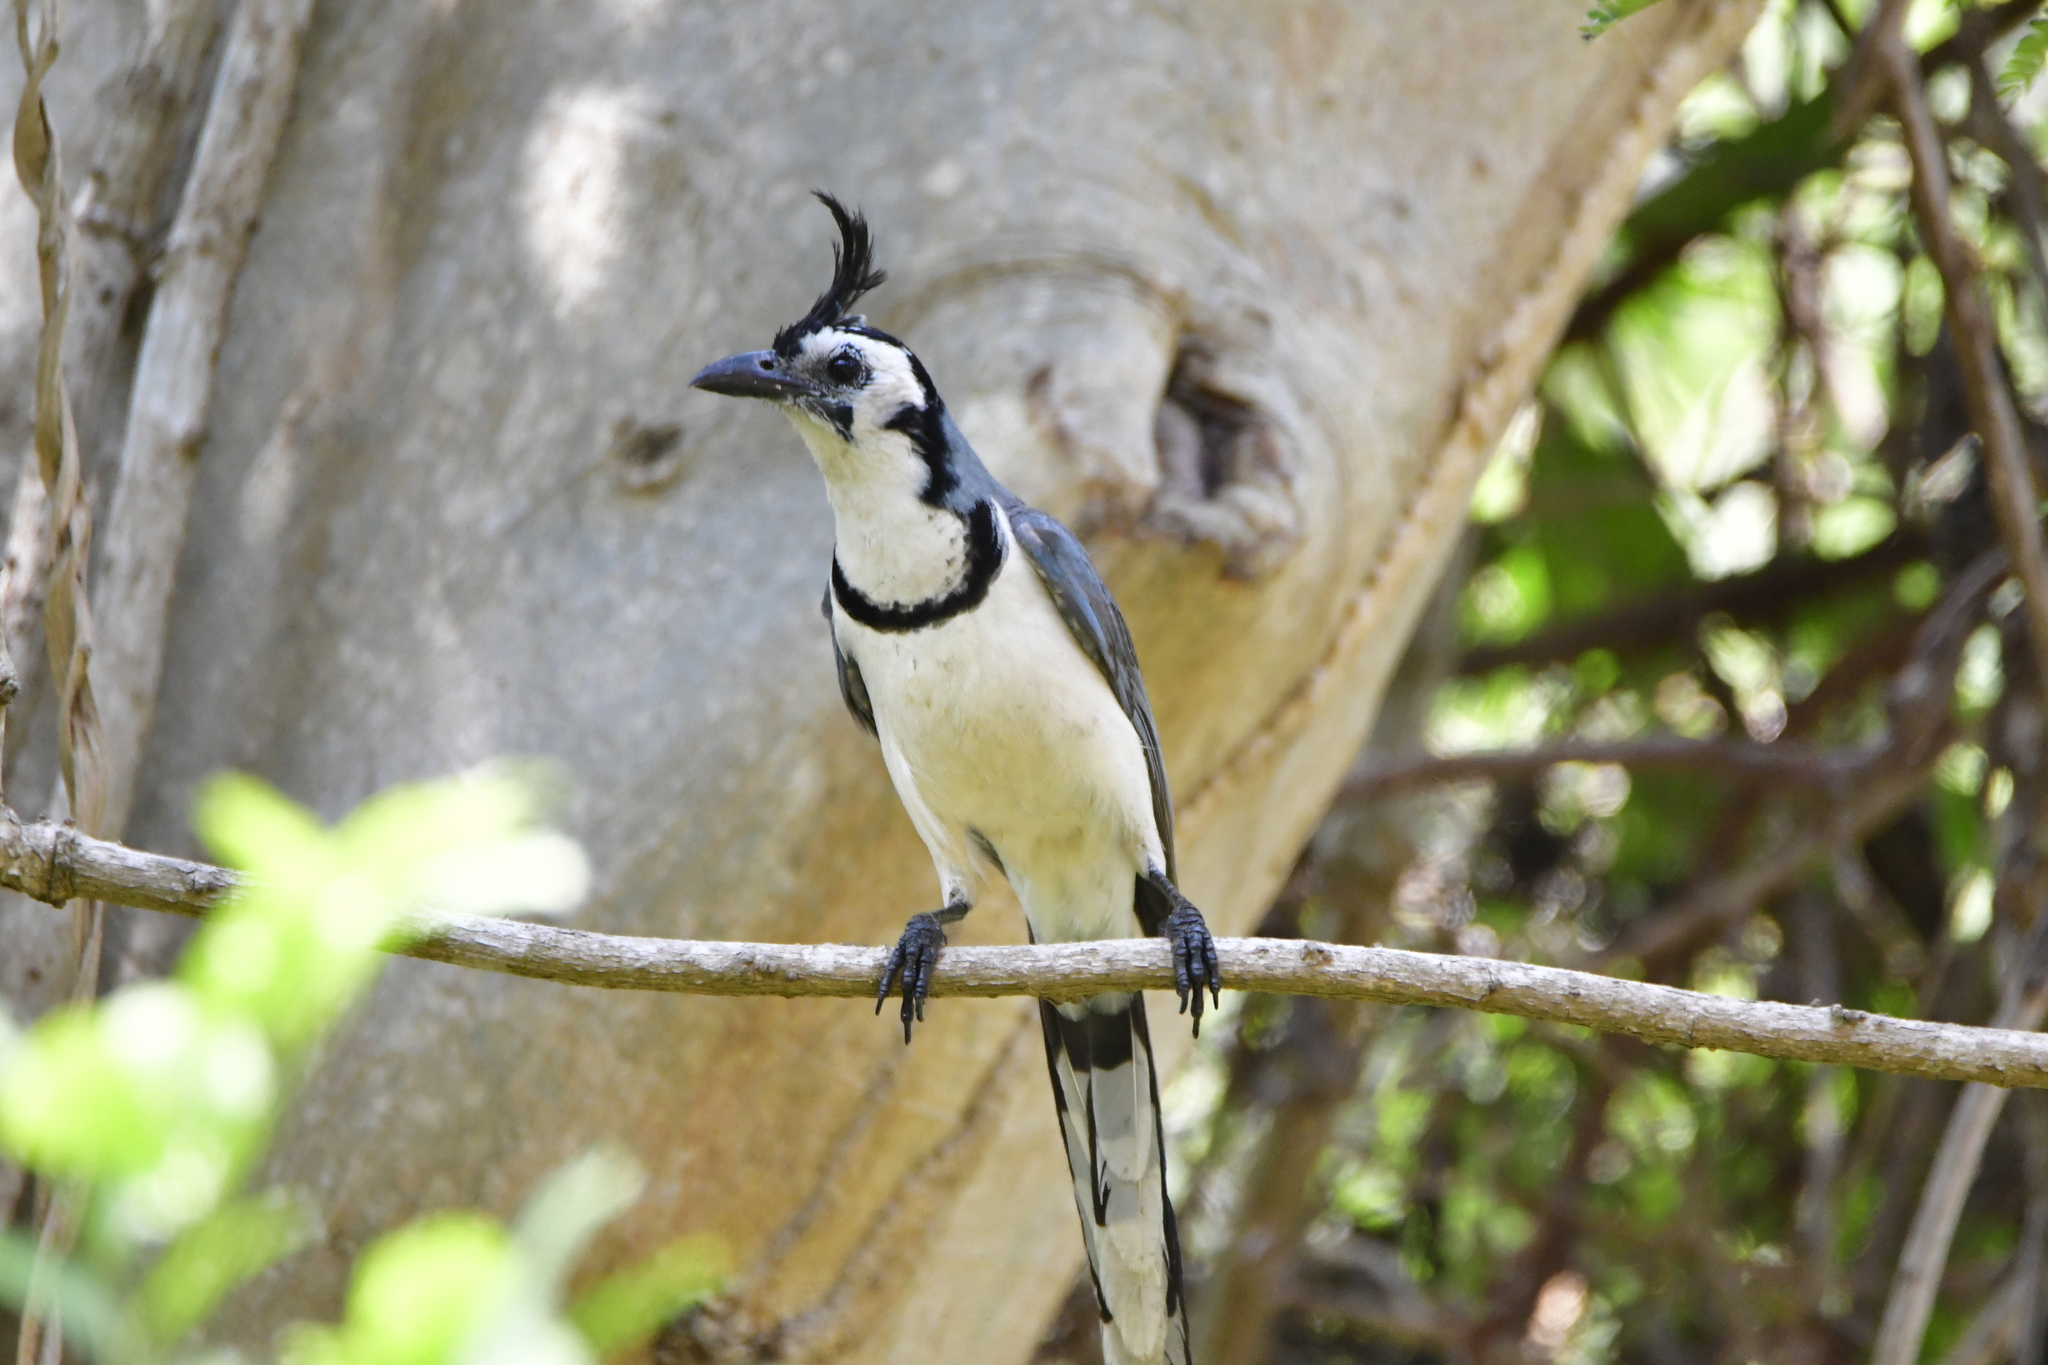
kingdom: Animalia
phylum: Chordata
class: Aves
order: Passeriformes
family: Corvidae
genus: Calocitta
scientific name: Calocitta formosa
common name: White-throated magpie-jay
